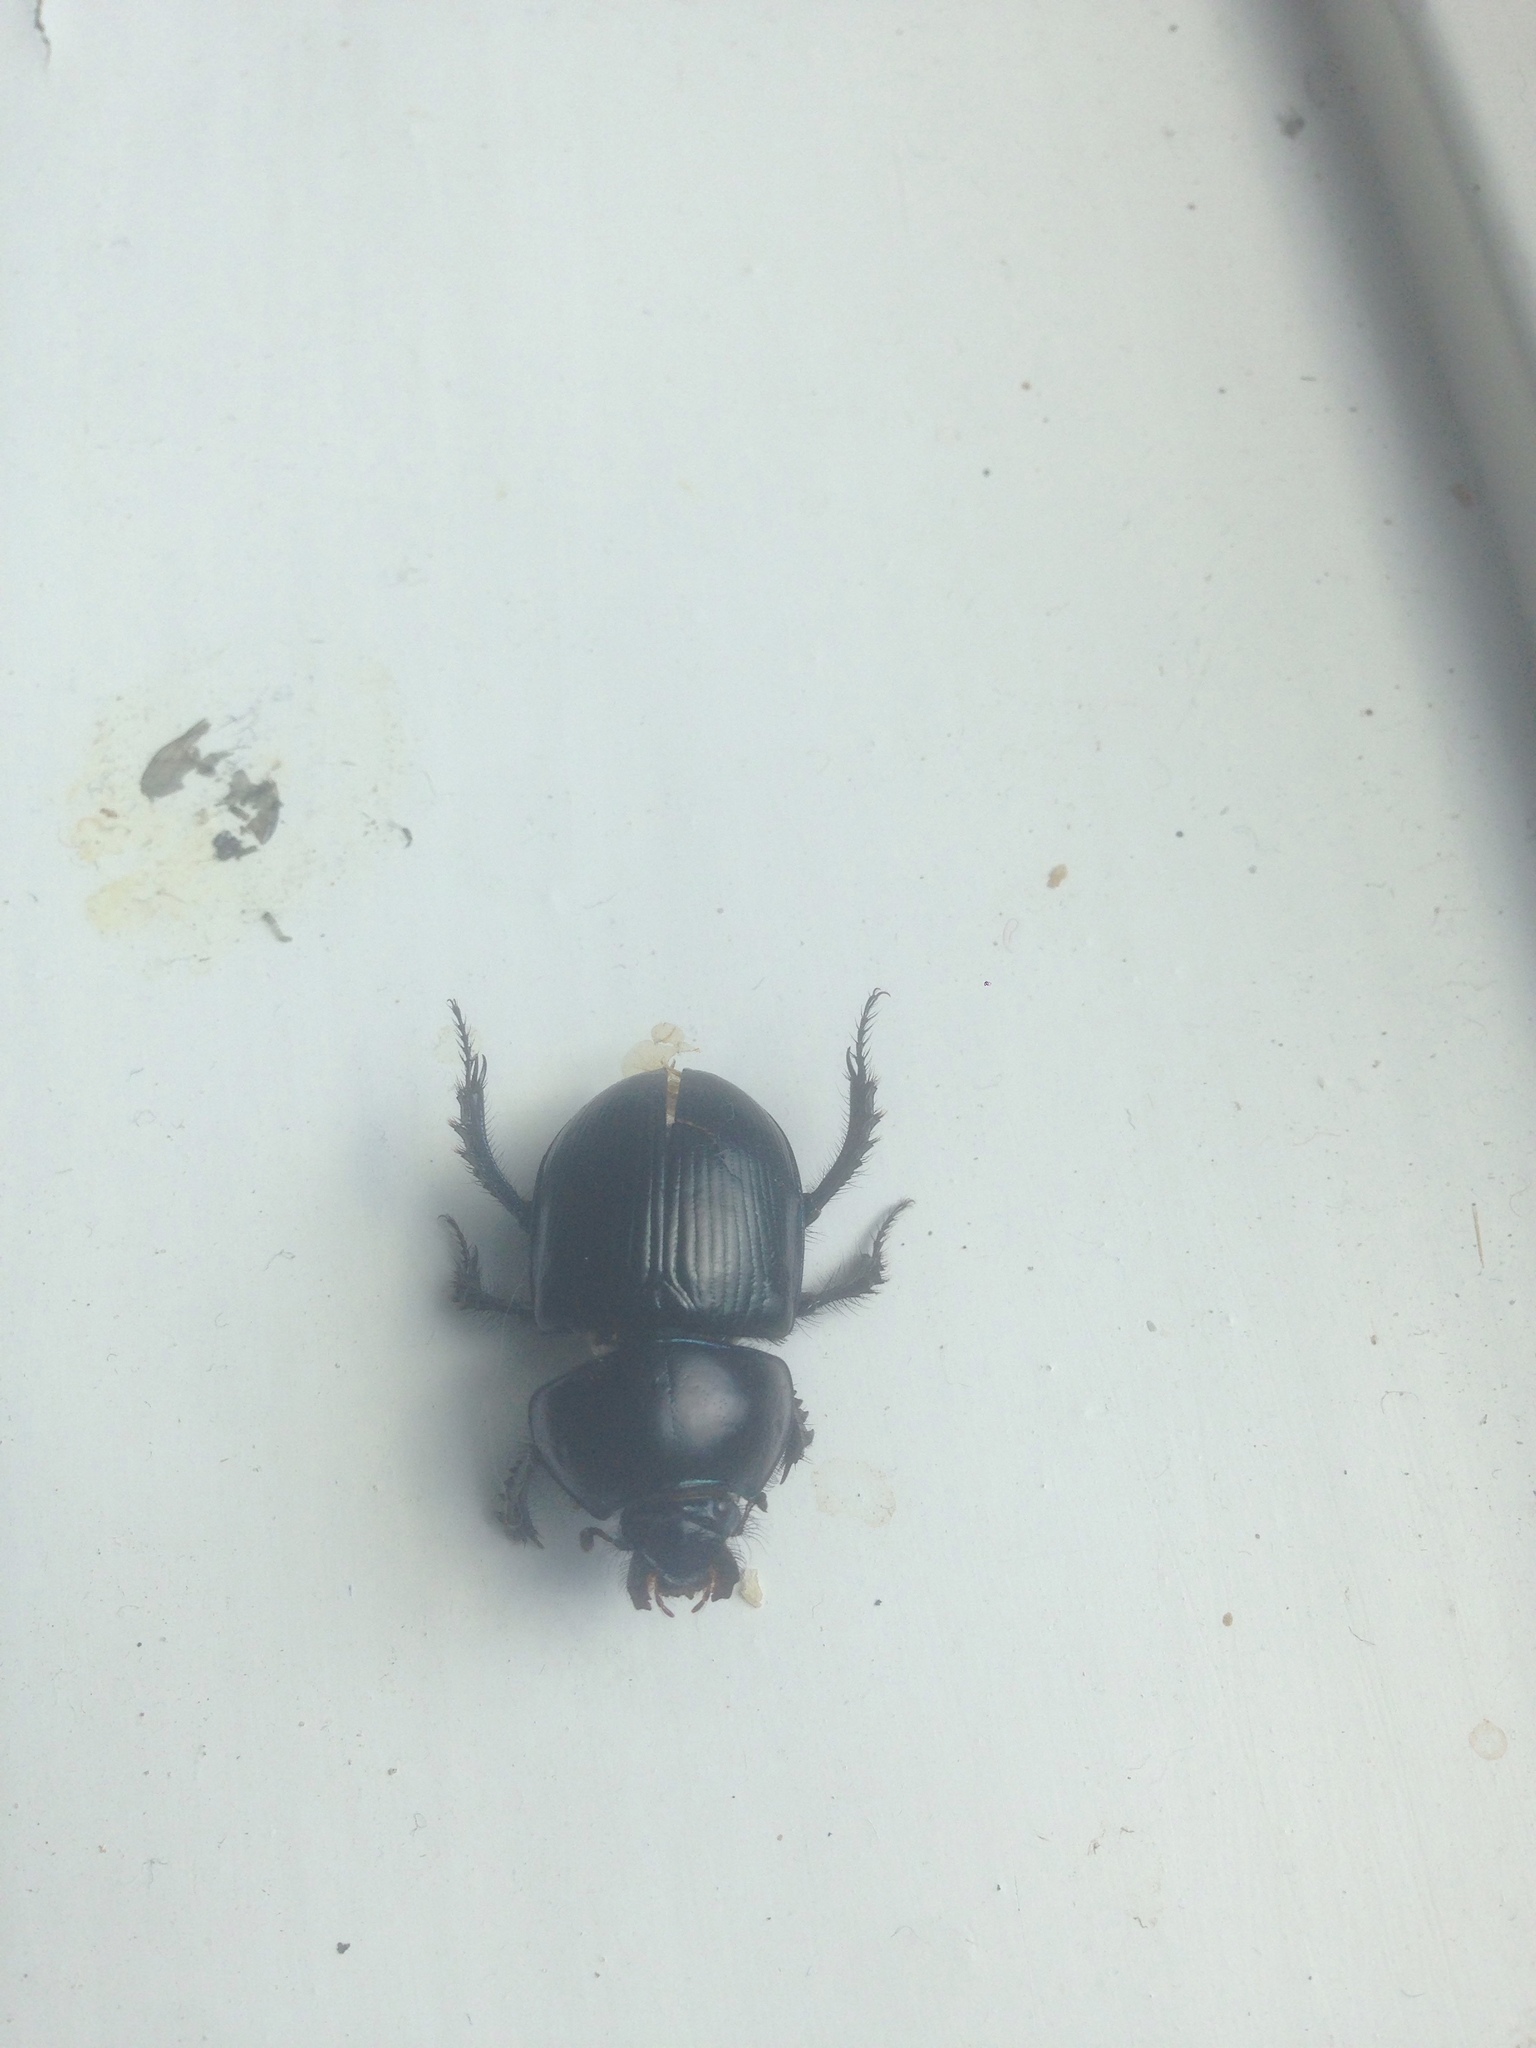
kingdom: Animalia
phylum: Arthropoda
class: Insecta
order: Coleoptera
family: Geotrupidae
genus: Anoplotrupes
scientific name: Anoplotrupes stercorosus
